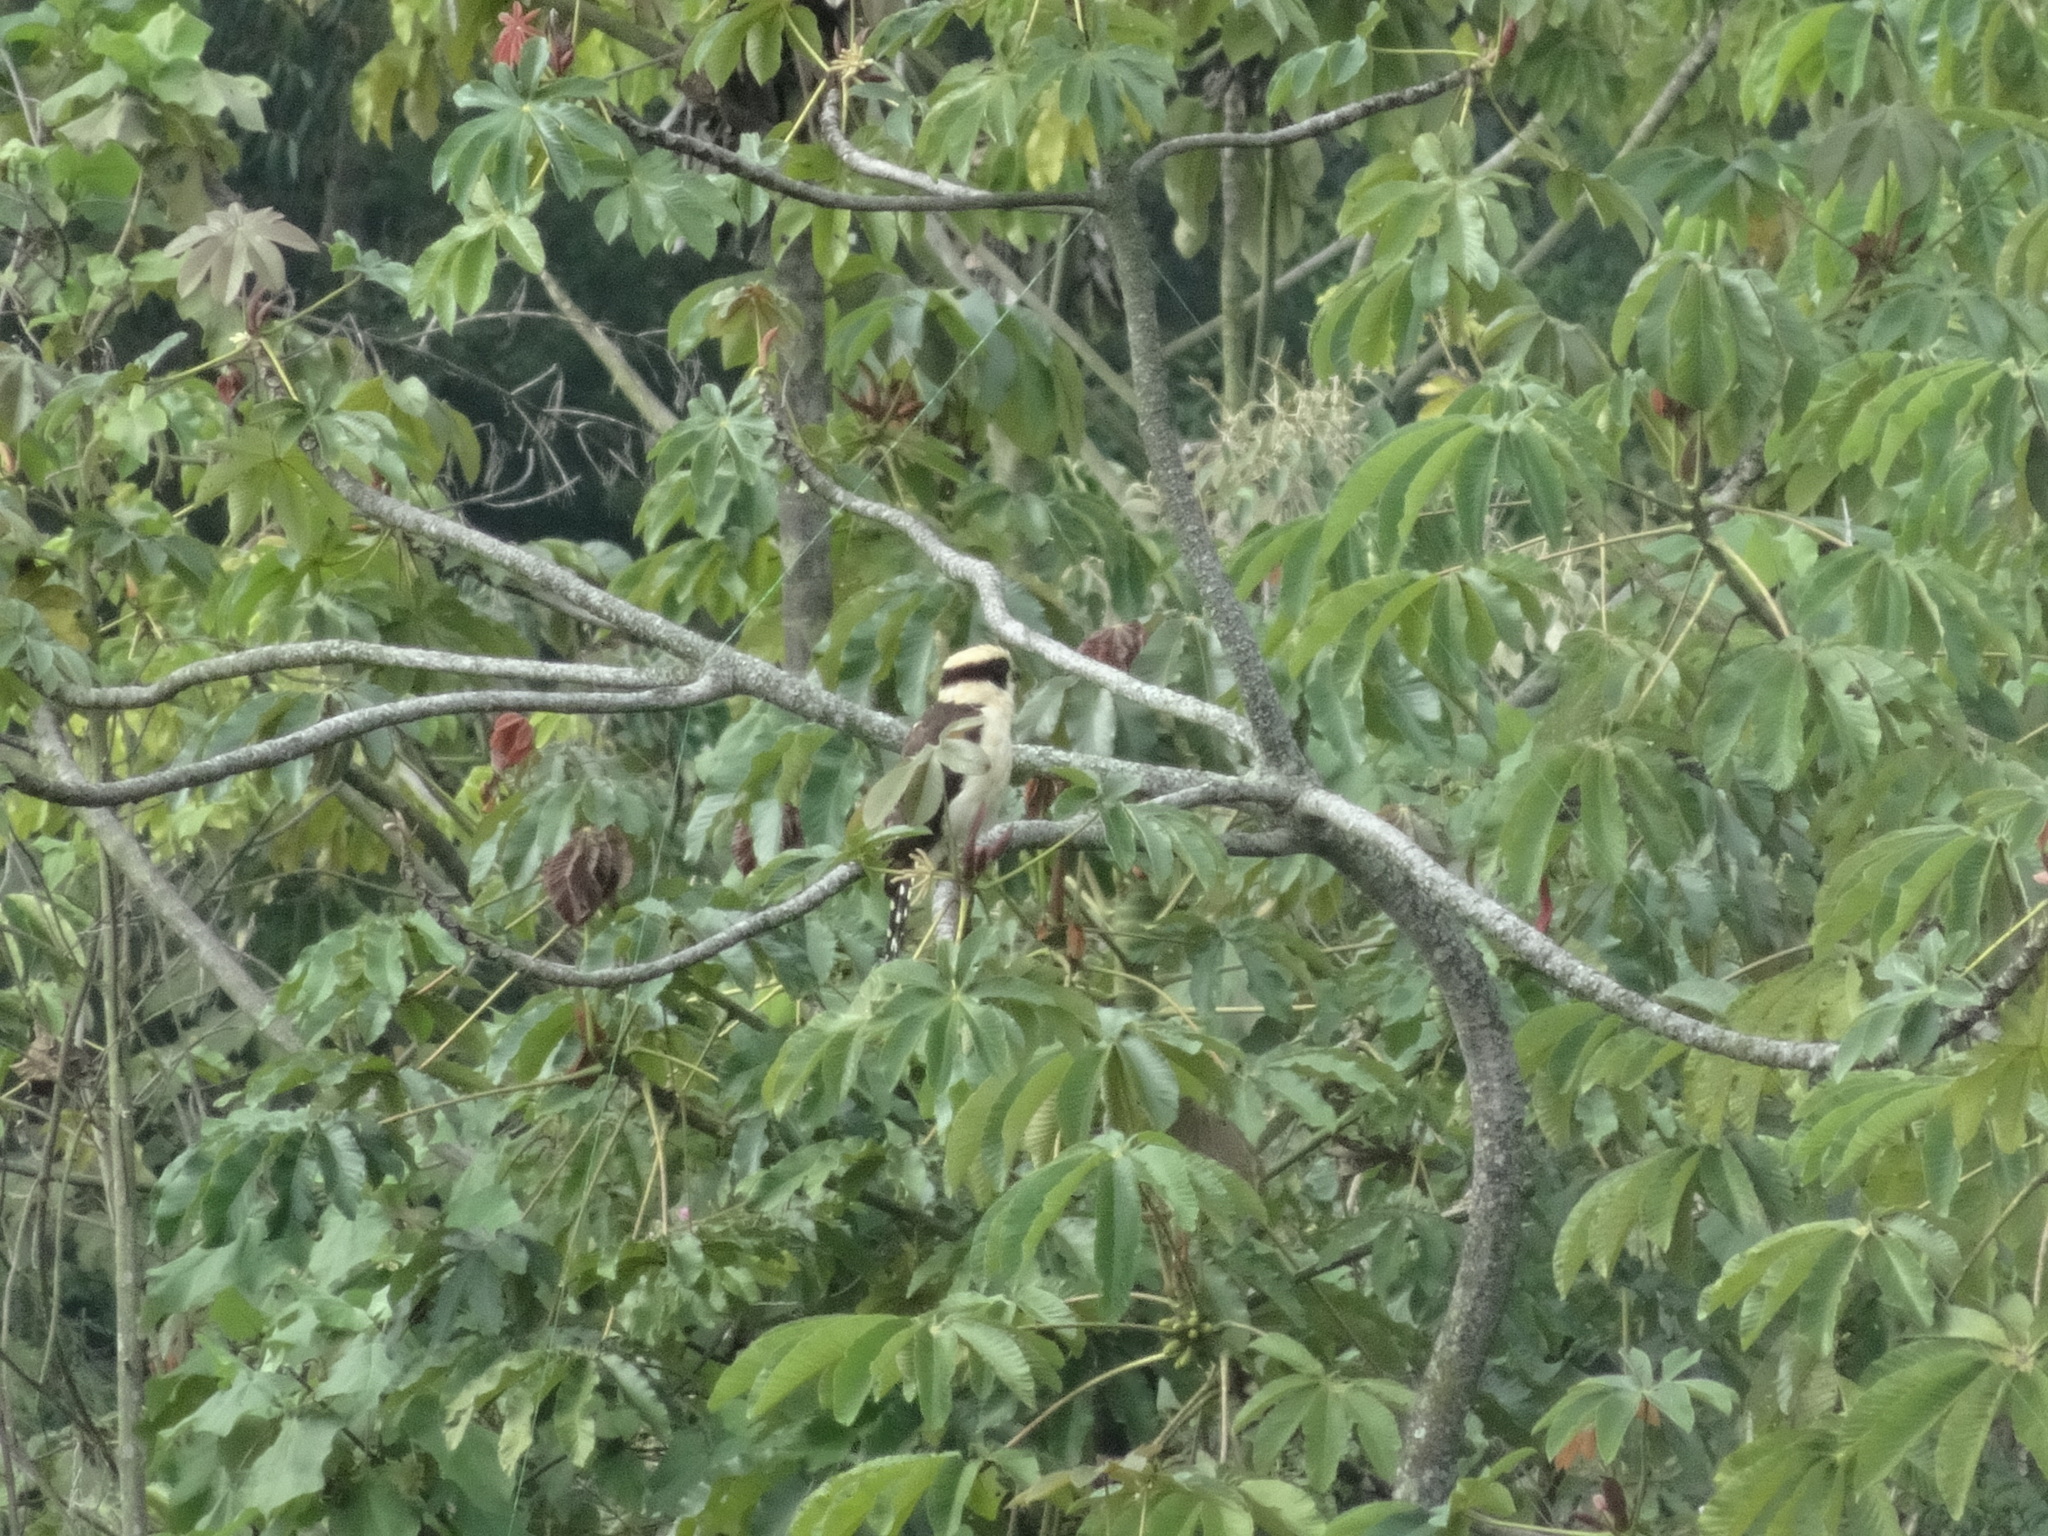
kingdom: Animalia
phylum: Chordata
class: Aves
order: Falconiformes
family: Falconidae
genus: Herpetotheres
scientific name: Herpetotheres cachinnans
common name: Laughing falcon
